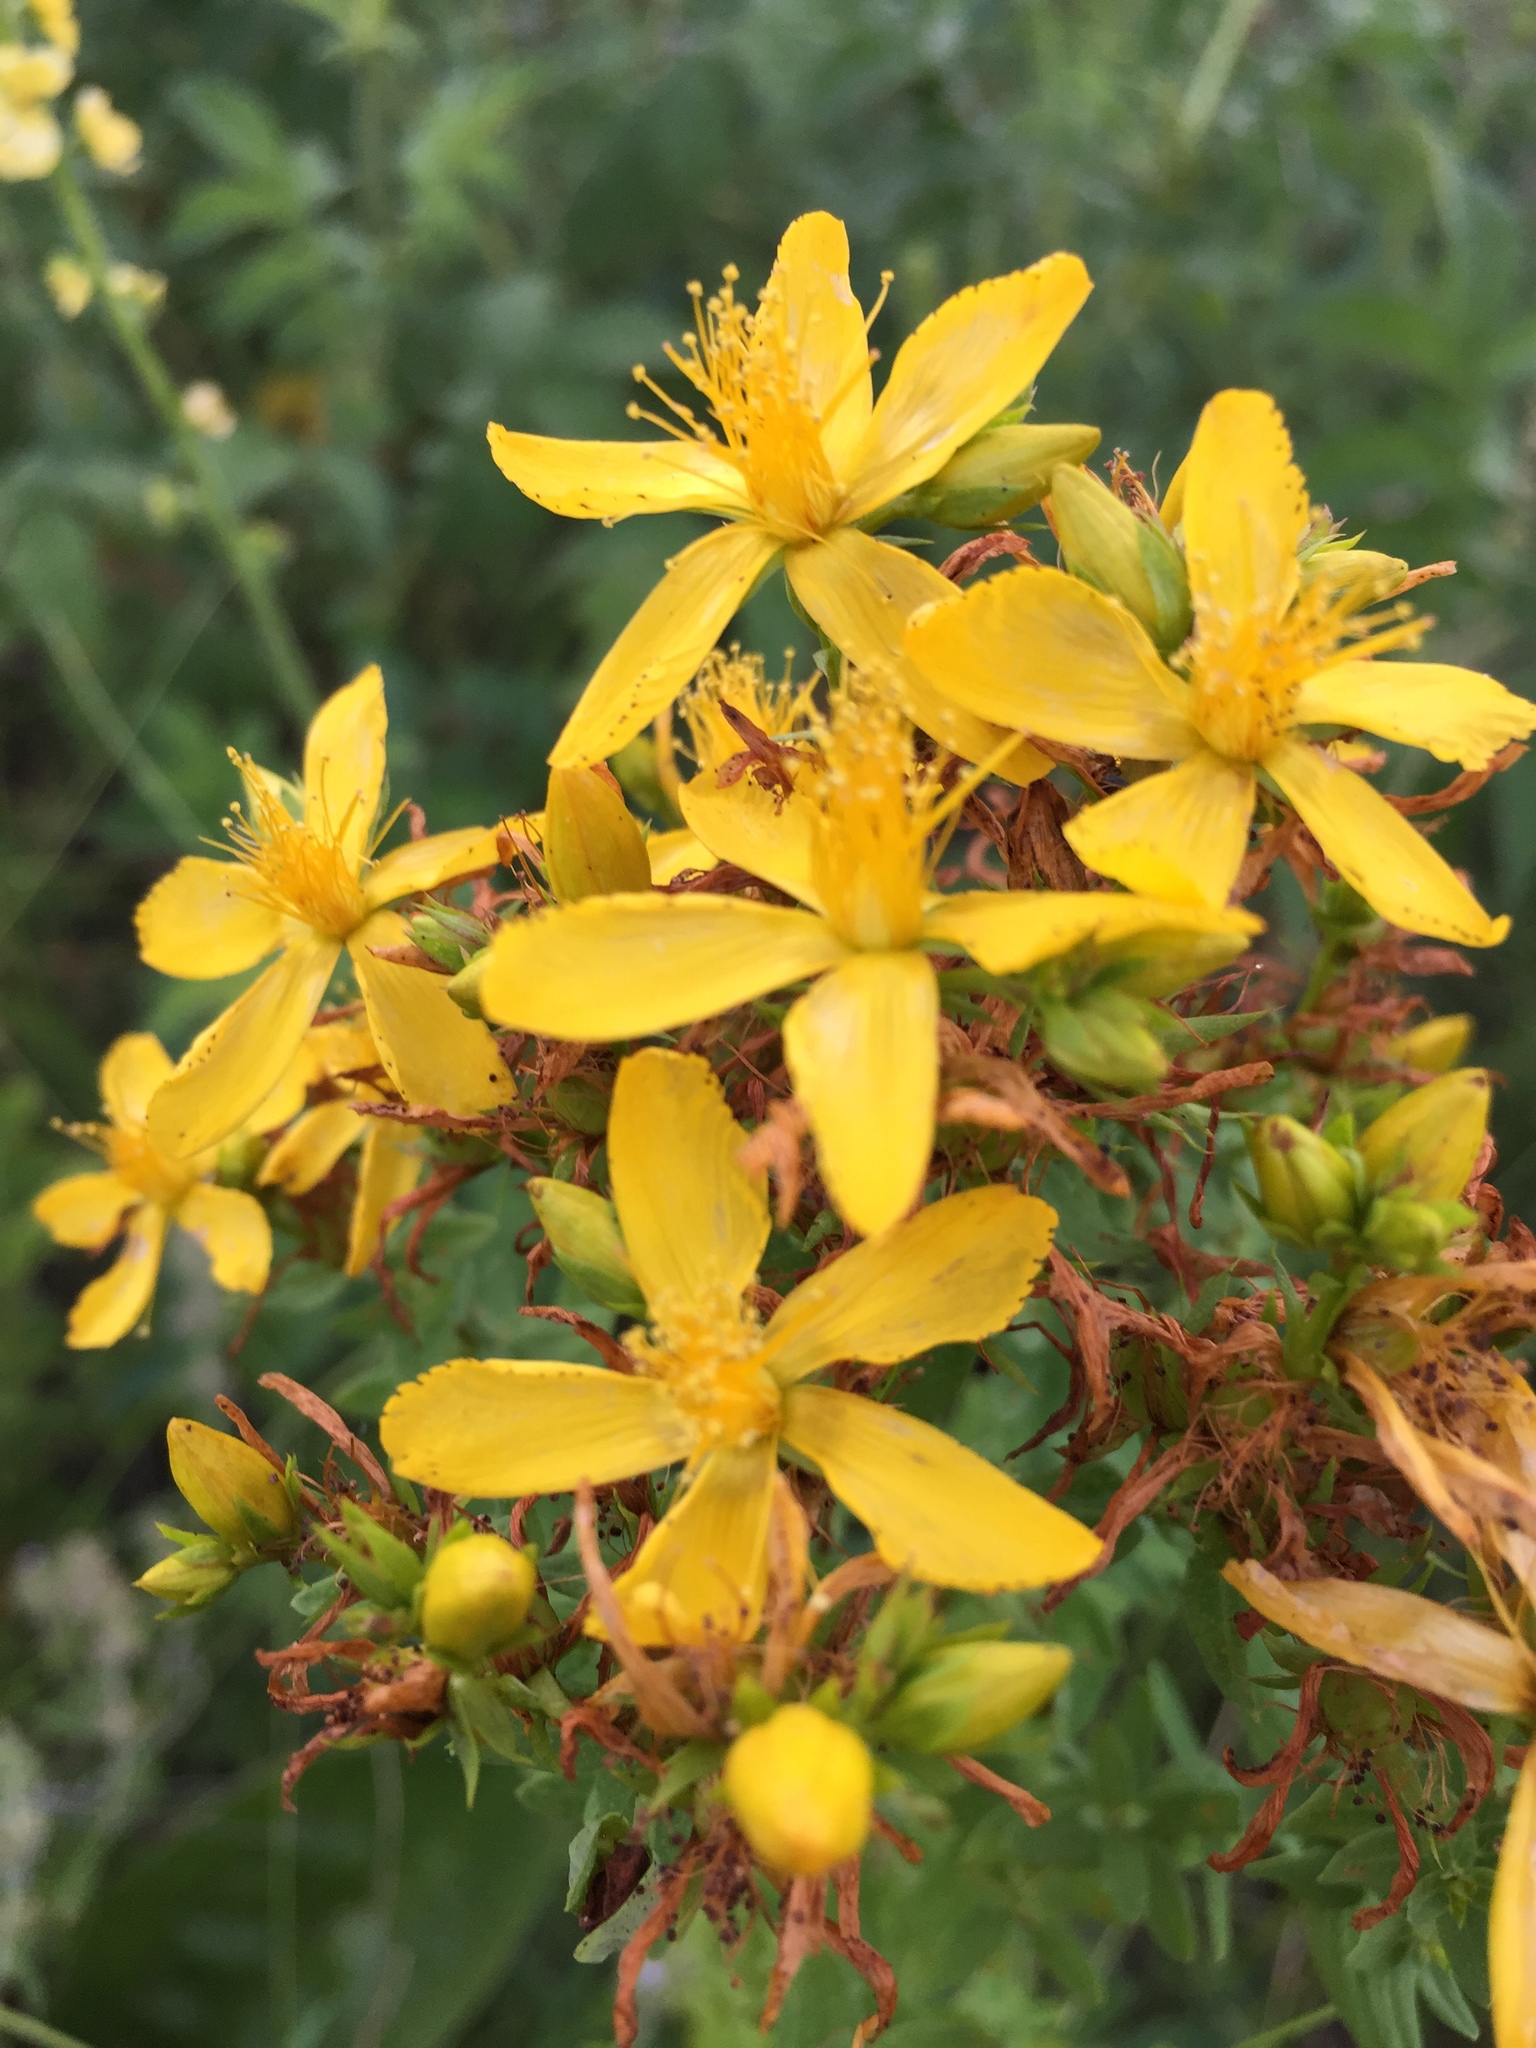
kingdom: Plantae
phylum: Tracheophyta
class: Magnoliopsida
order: Malpighiales
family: Hypericaceae
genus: Hypericum
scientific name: Hypericum perforatum
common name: Common st. johnswort
